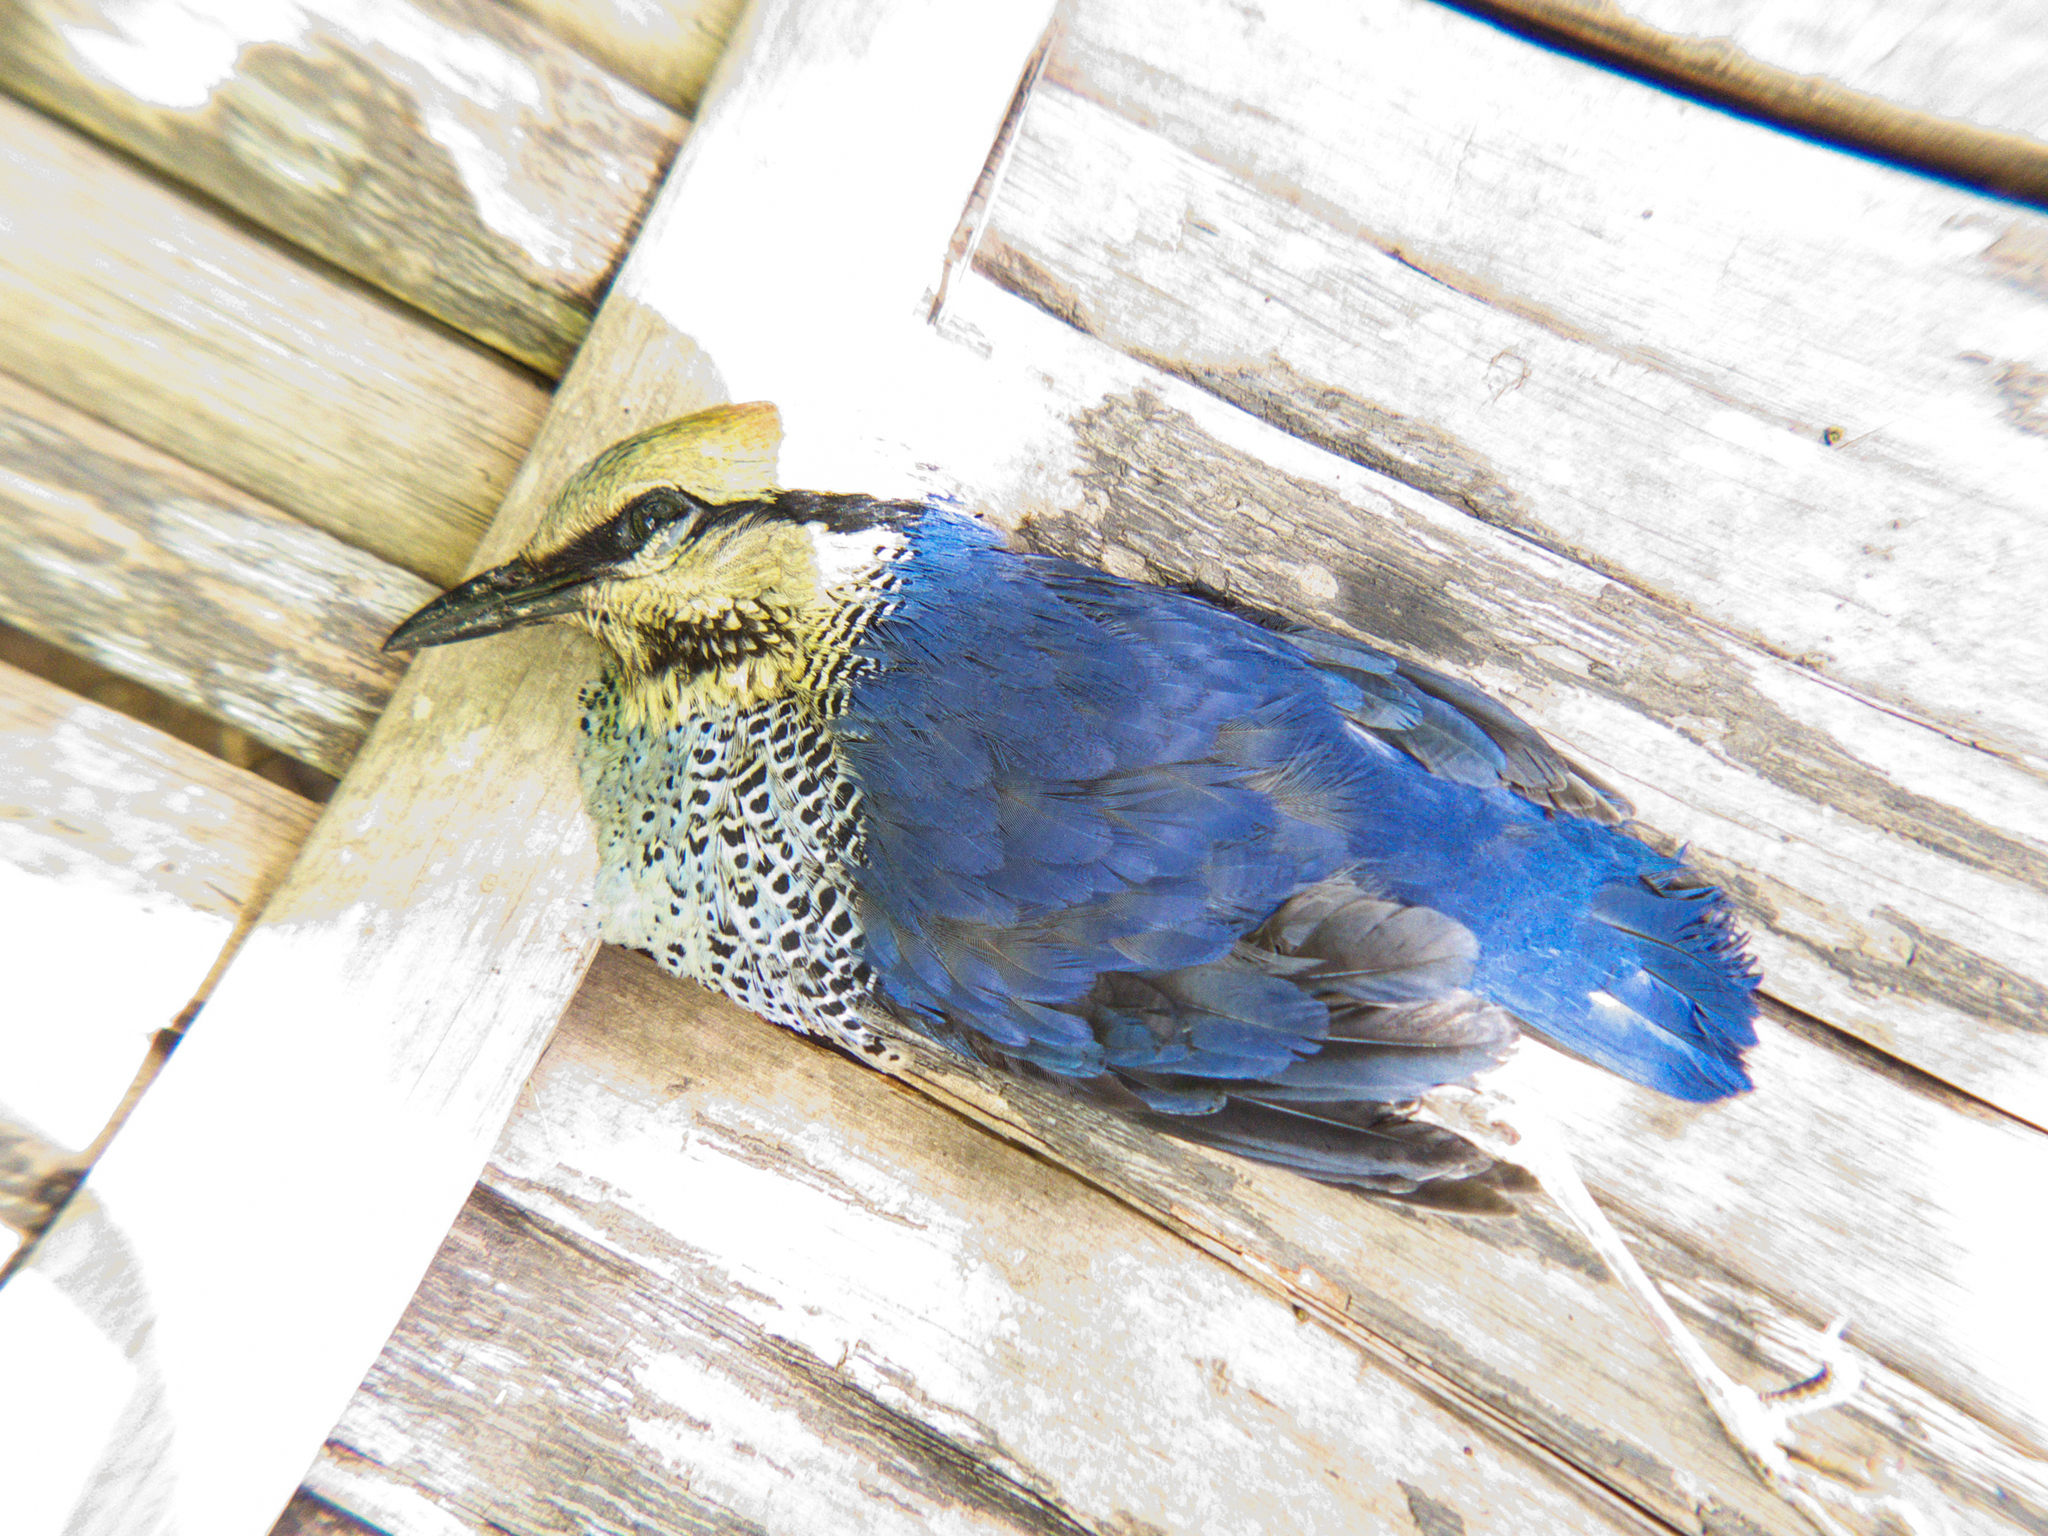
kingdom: Animalia
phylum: Chordata
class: Aves
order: Passeriformes
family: Pittidae
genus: Pitta
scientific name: Pitta cyanea
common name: Blue pitta
